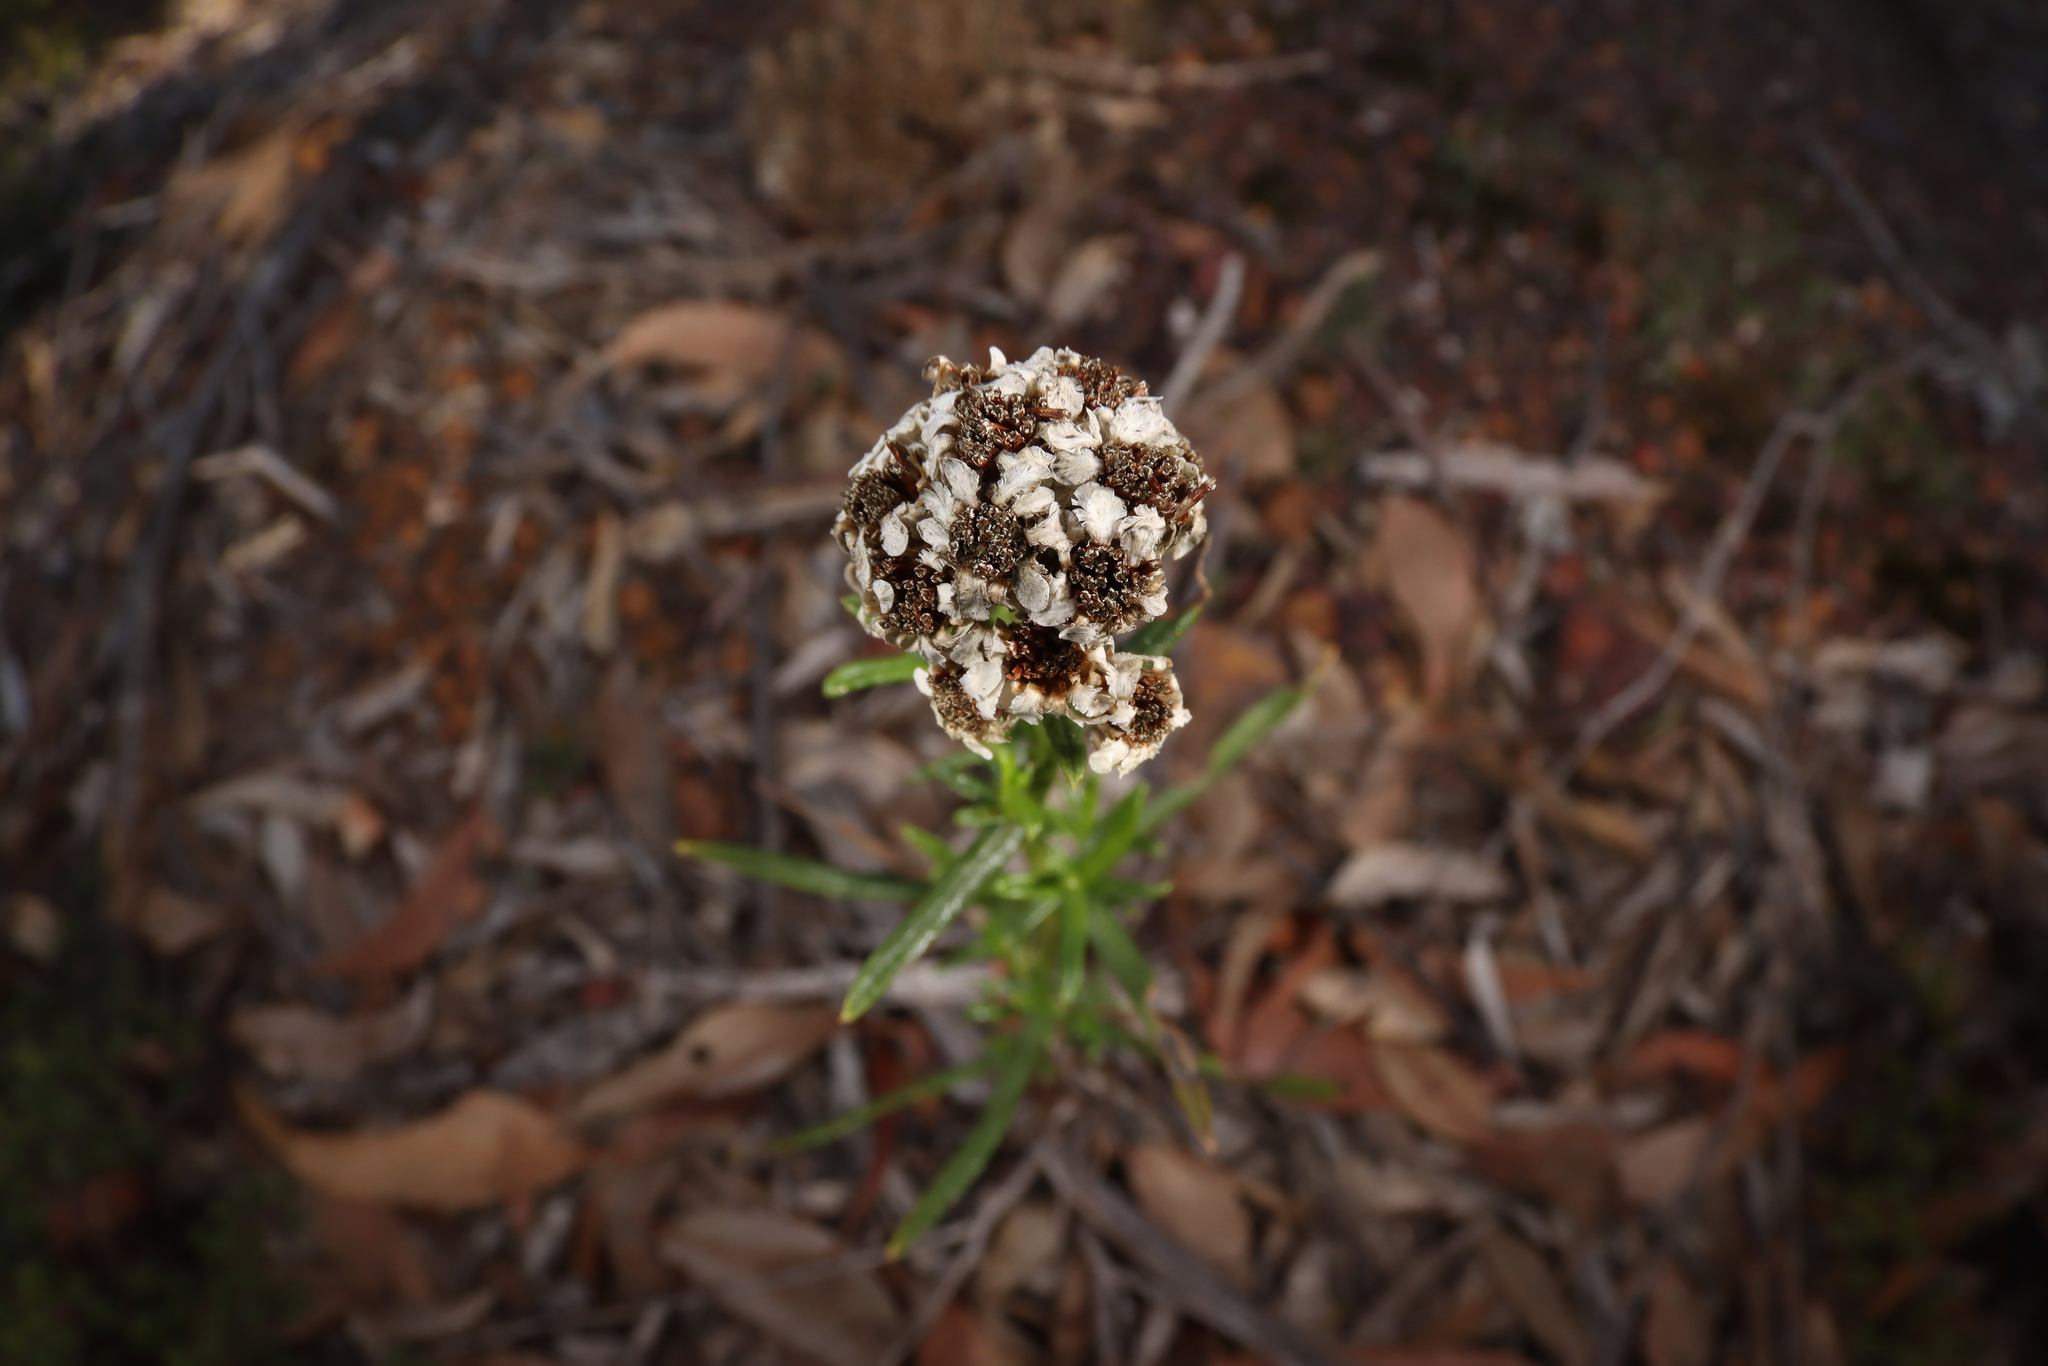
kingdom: Plantae
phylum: Tracheophyta
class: Magnoliopsida
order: Asterales
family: Asteraceae
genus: Ixodia
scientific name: Ixodia achillaeoides
